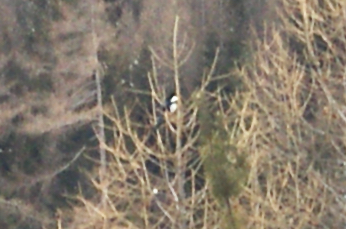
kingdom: Animalia
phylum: Chordata
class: Aves
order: Passeriformes
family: Corvidae
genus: Pica
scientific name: Pica pica
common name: Eurasian magpie
